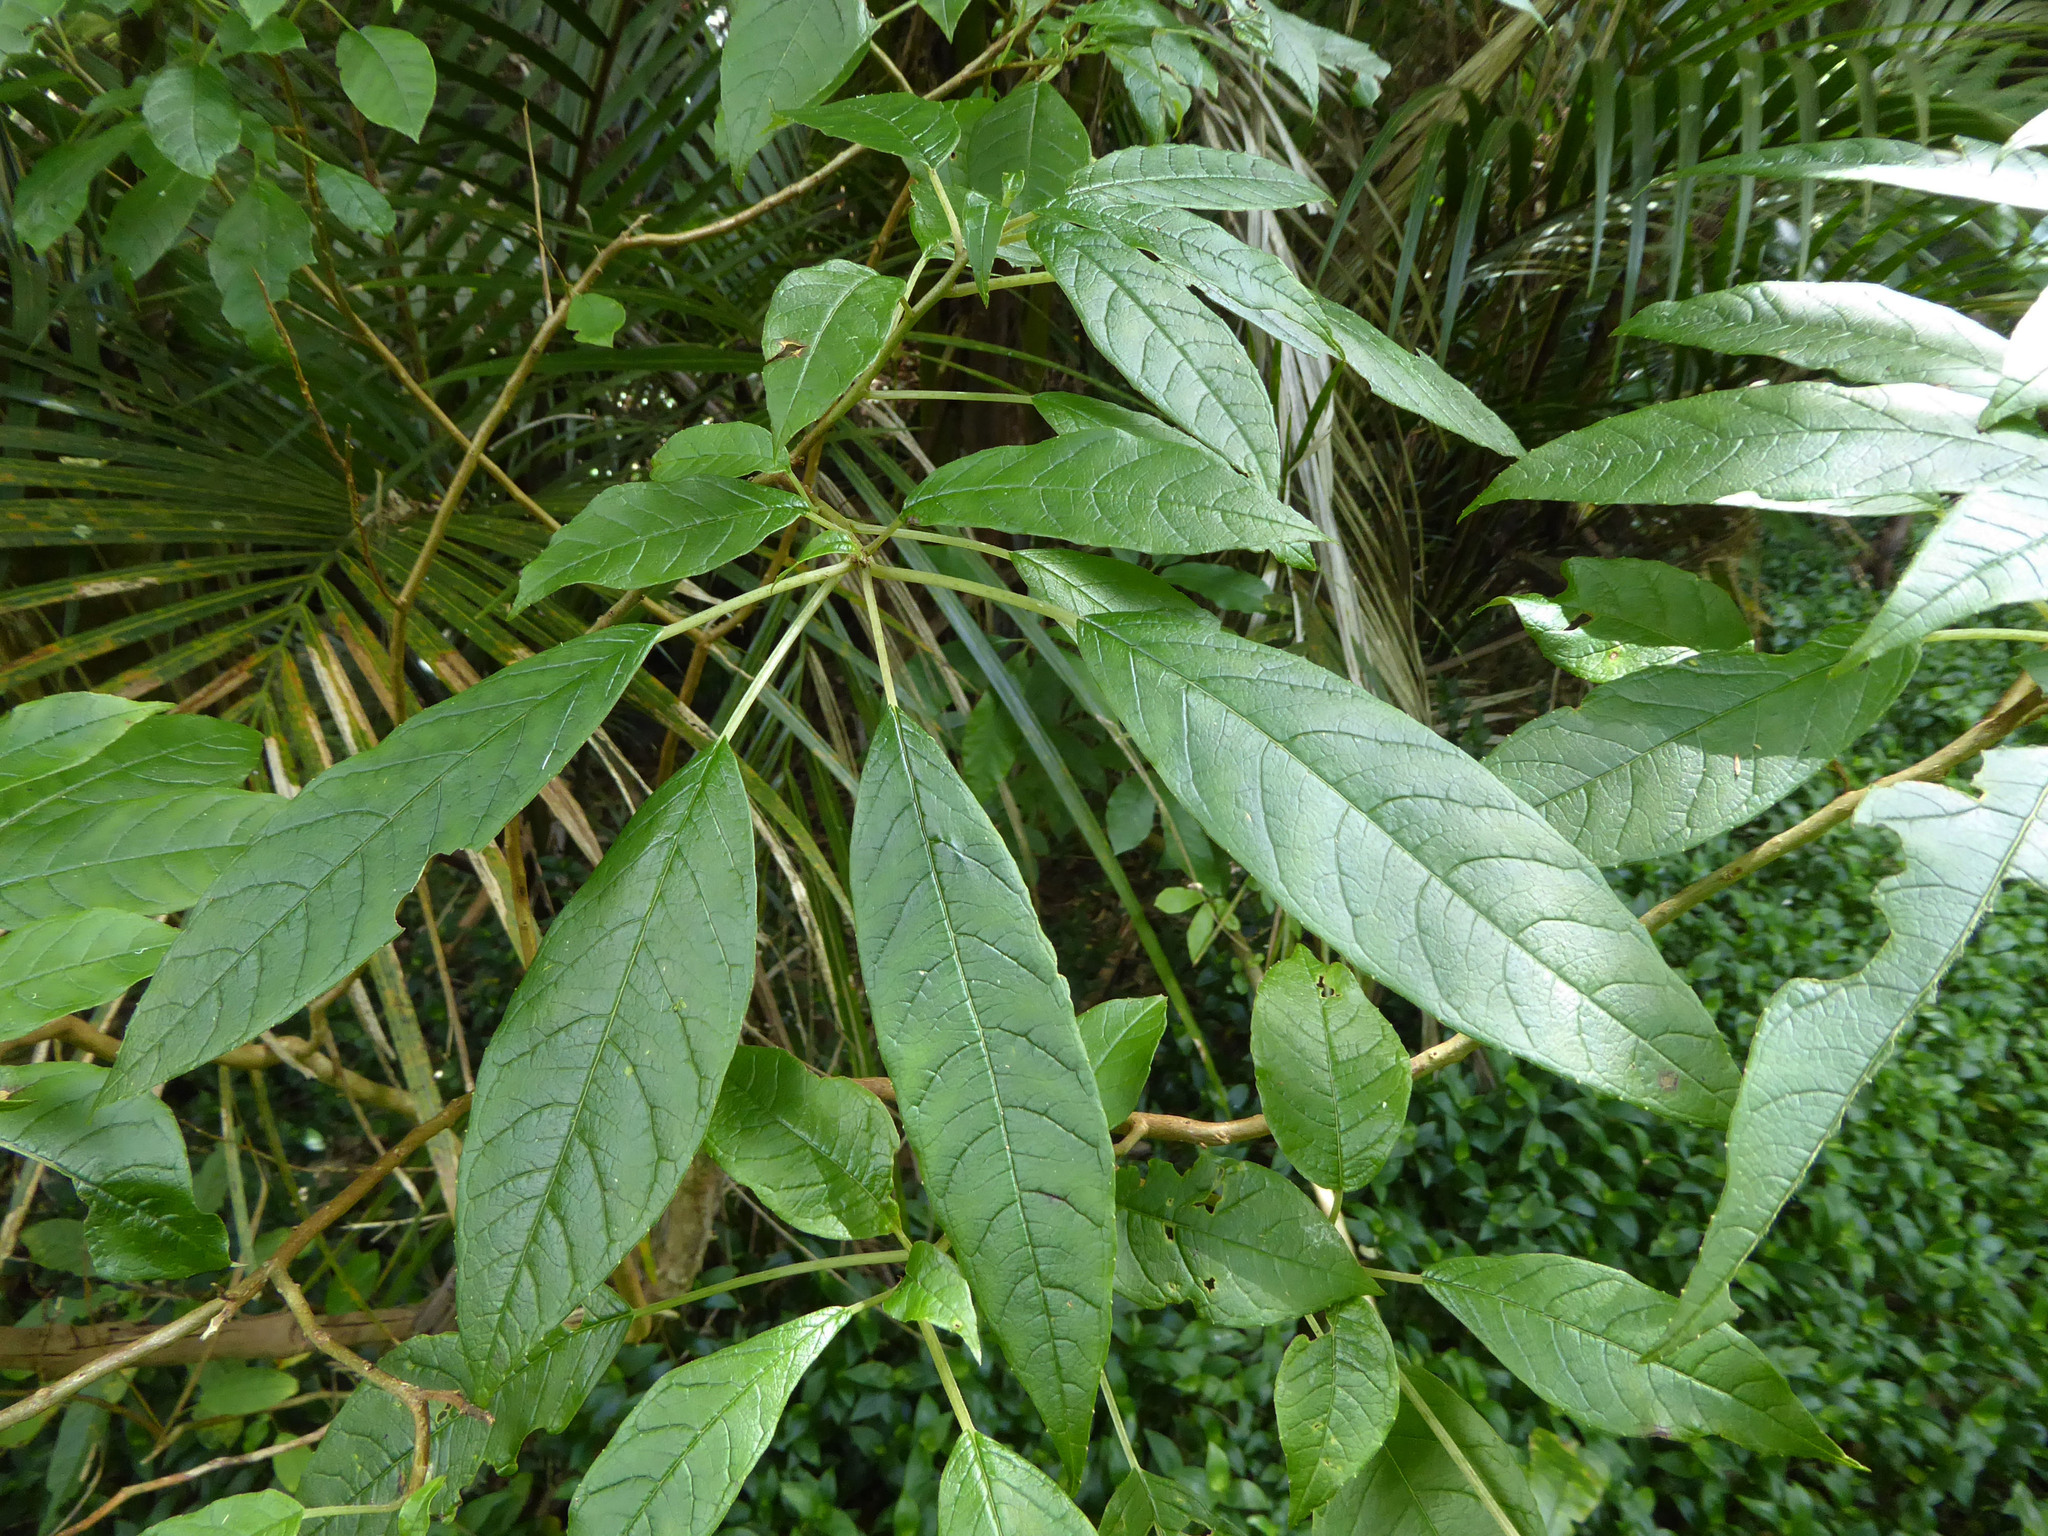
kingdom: Plantae
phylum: Tracheophyta
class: Magnoliopsida
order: Myrtales
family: Onagraceae
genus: Fuchsia
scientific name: Fuchsia excorticata
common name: Tree fuchsia
